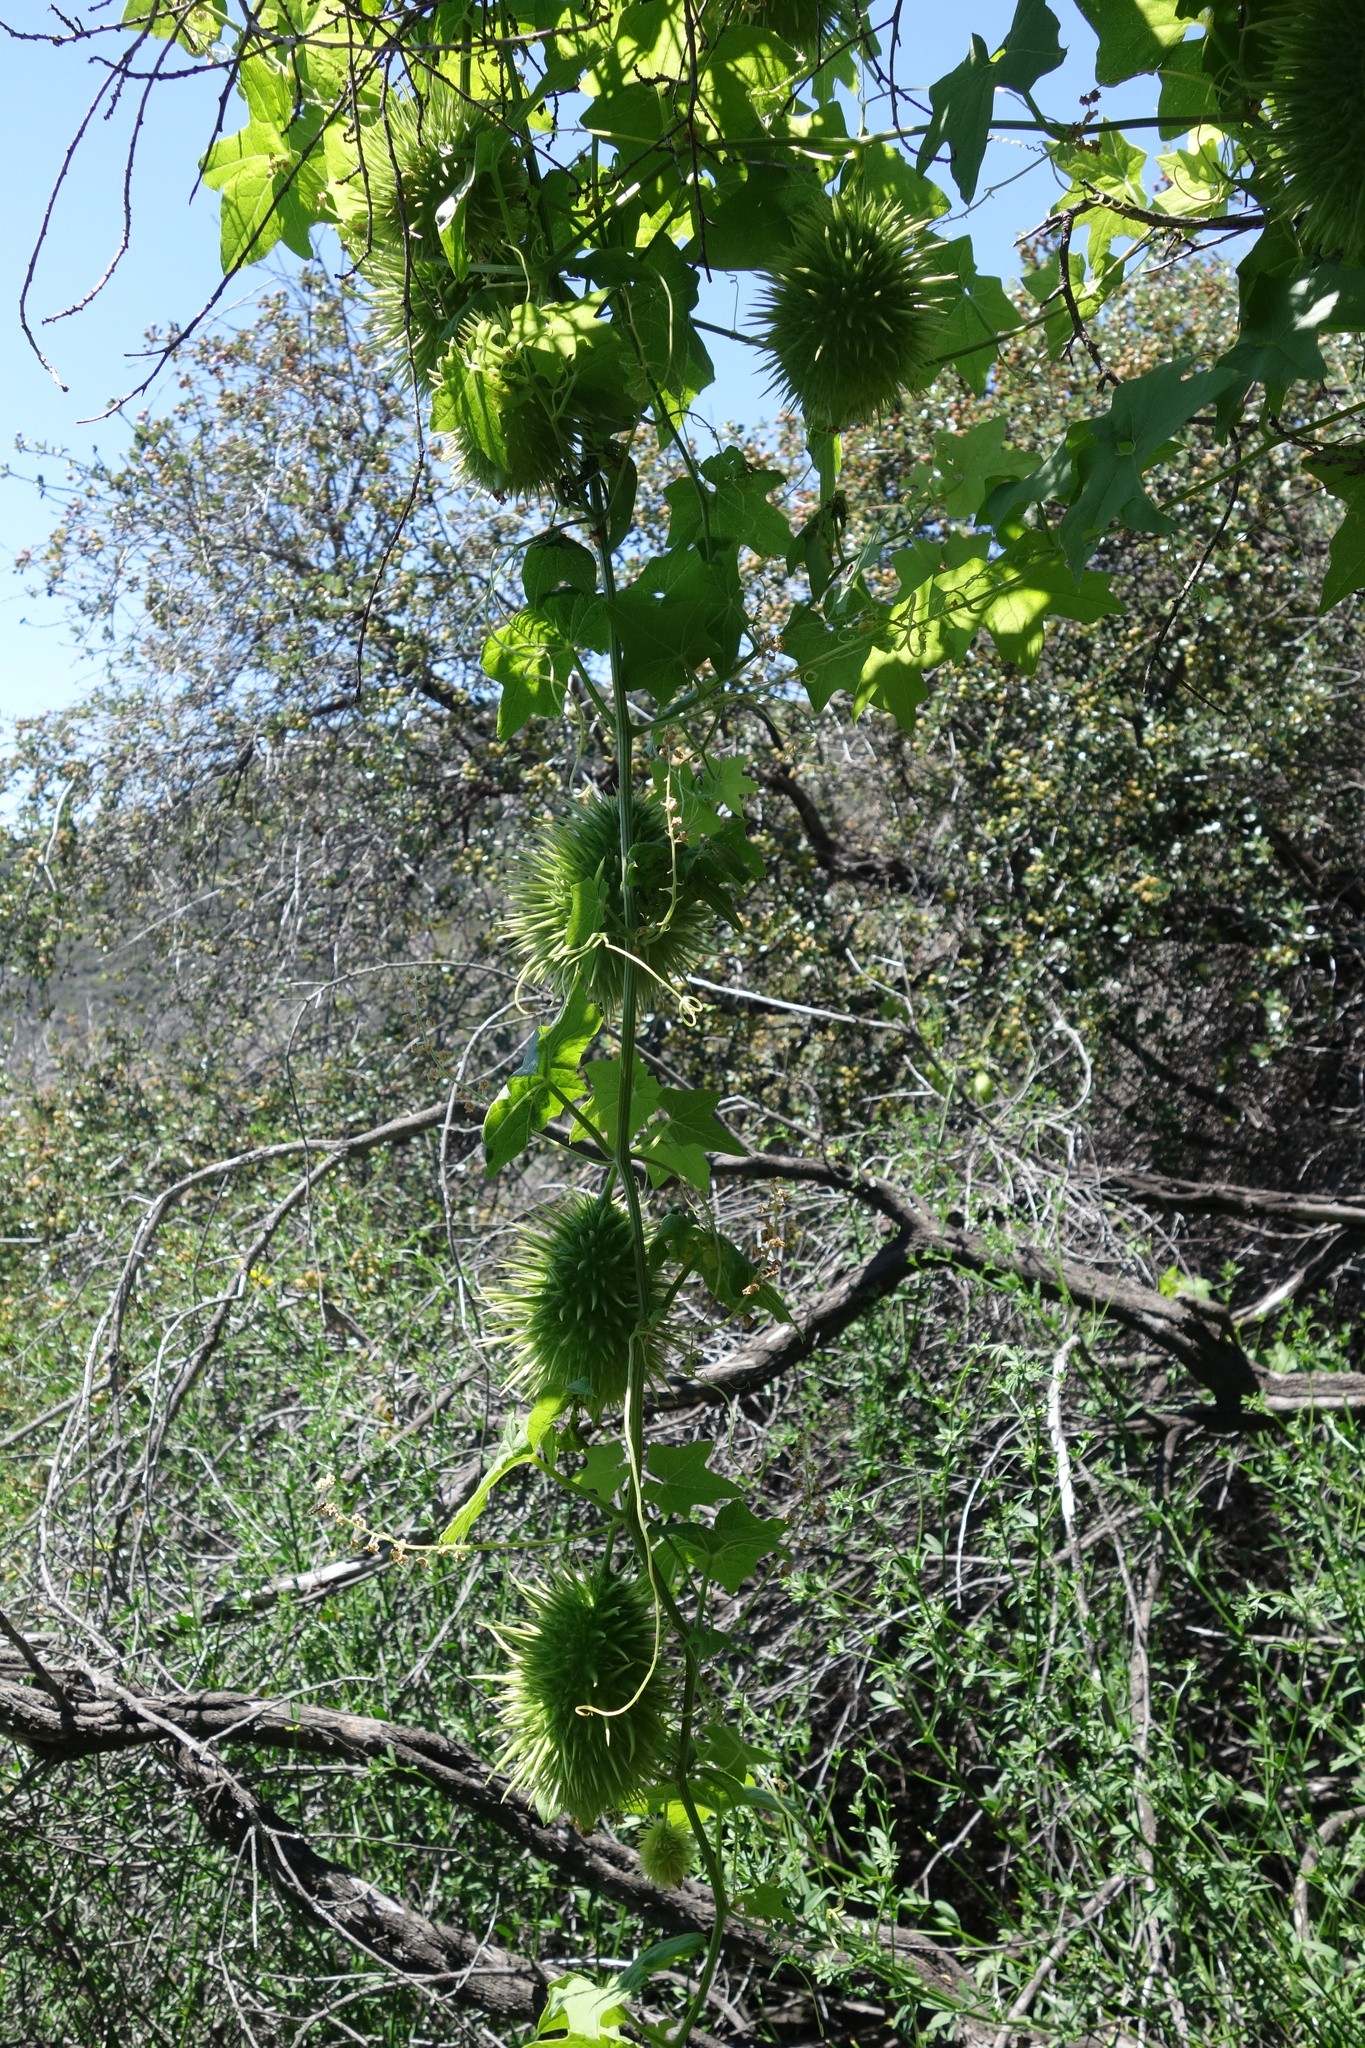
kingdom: Plantae
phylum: Tracheophyta
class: Magnoliopsida
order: Cucurbitales
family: Cucurbitaceae
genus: Marah
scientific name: Marah macrocarpa
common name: Cucamonga manroot
